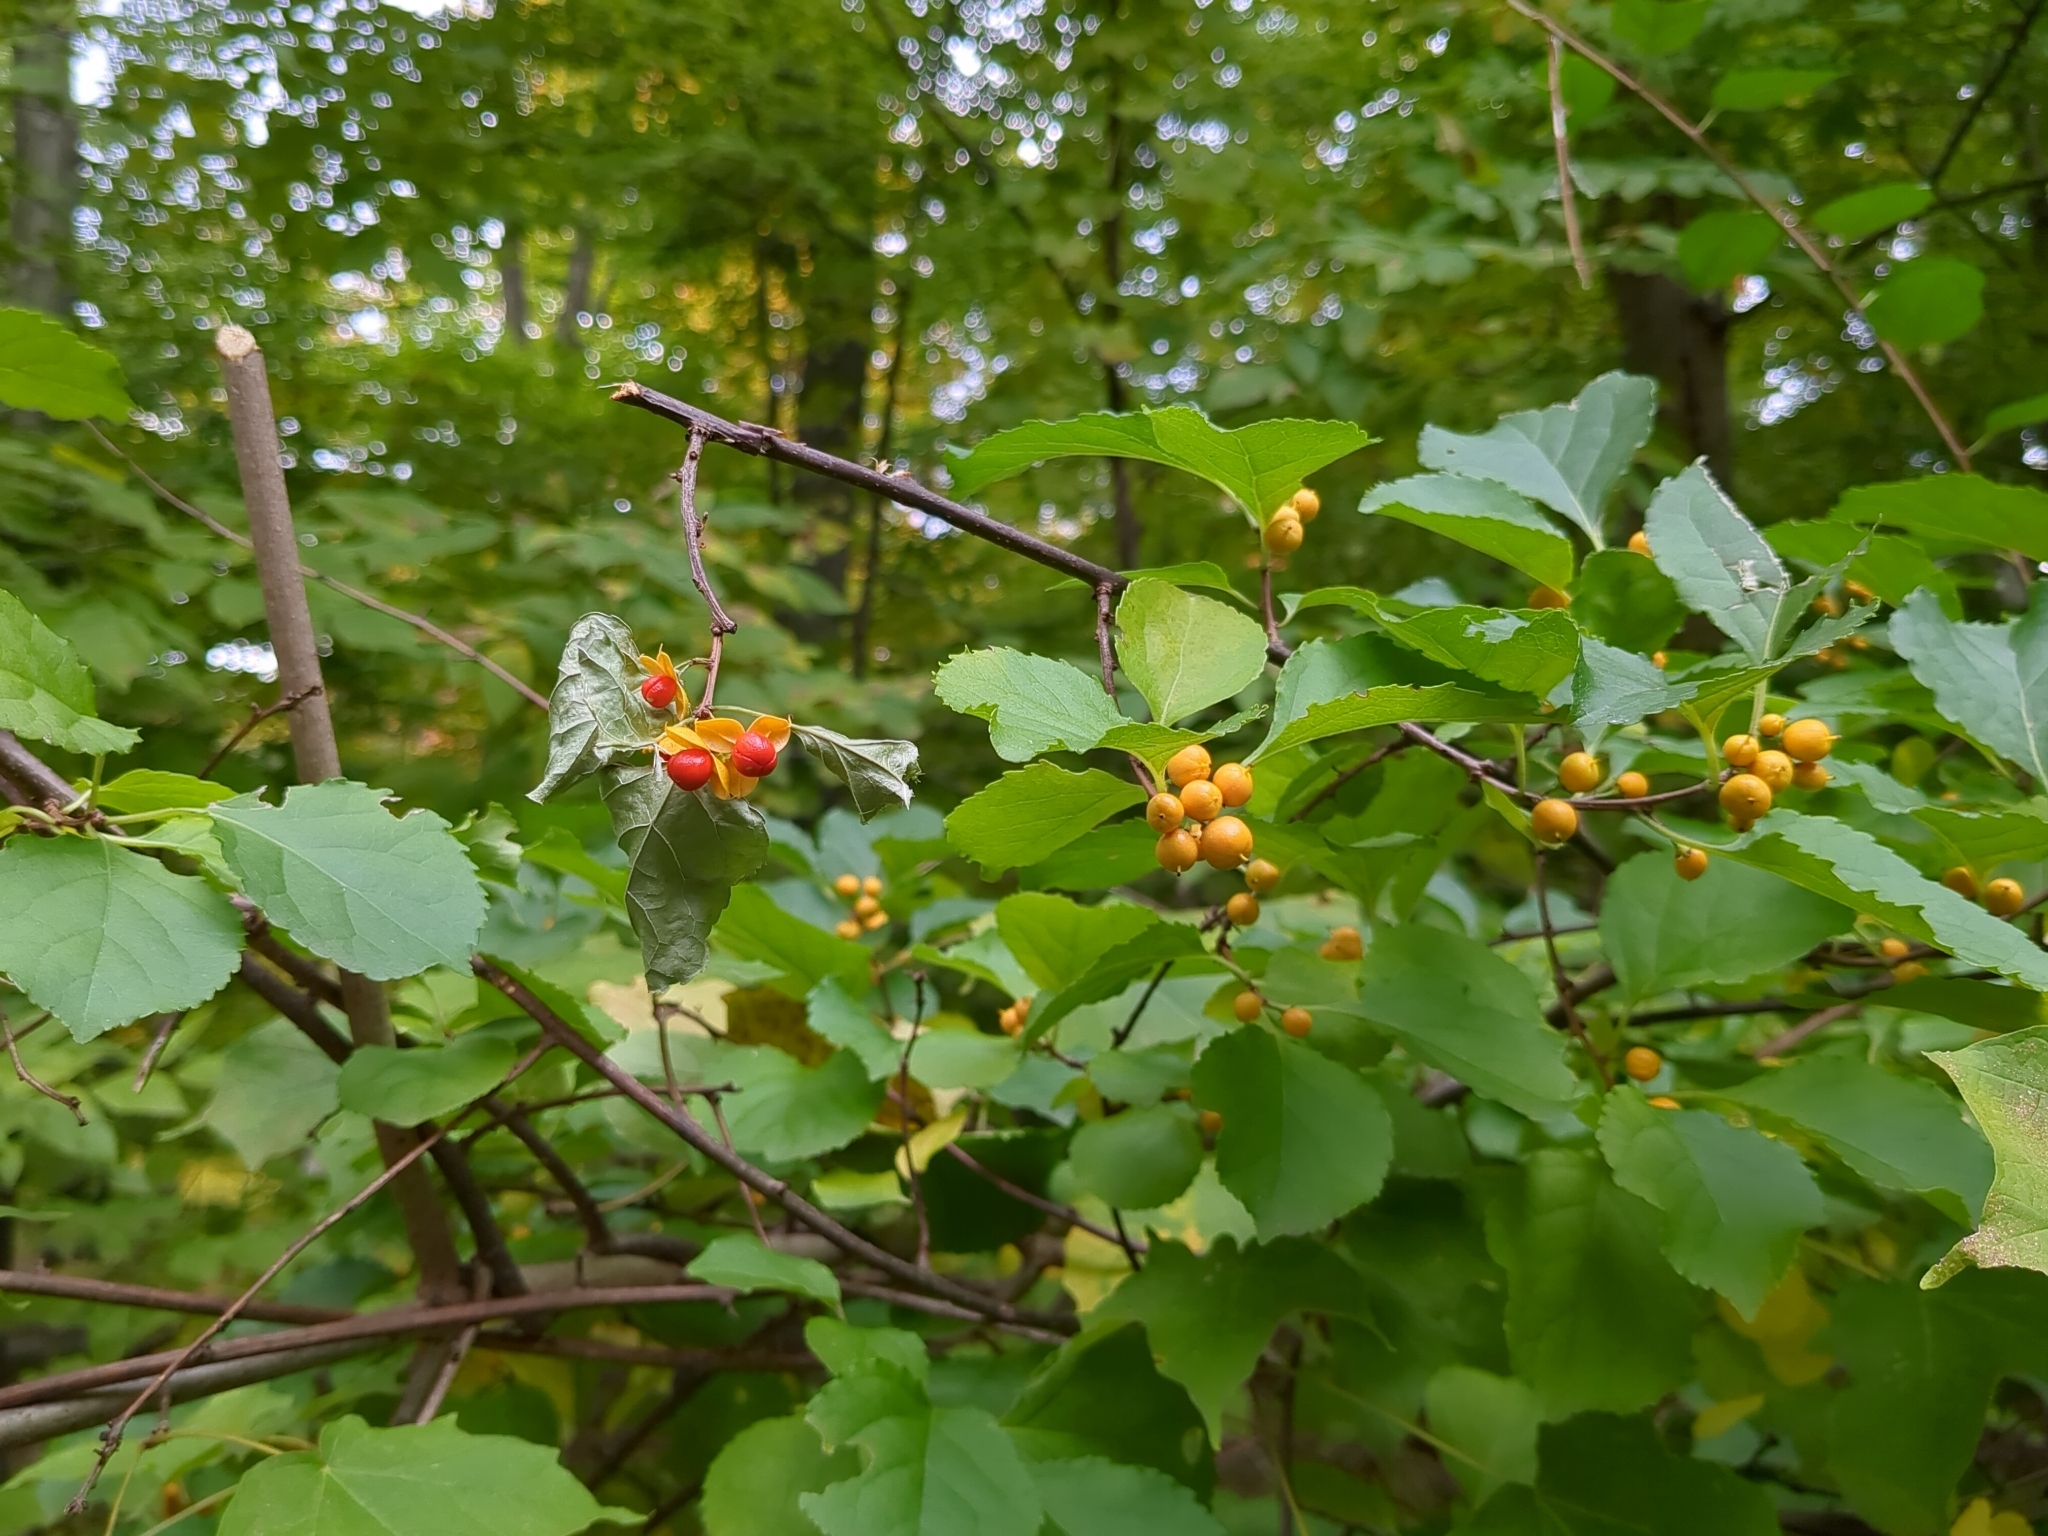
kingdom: Plantae
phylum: Tracheophyta
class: Magnoliopsida
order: Celastrales
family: Celastraceae
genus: Celastrus
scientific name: Celastrus orbiculatus
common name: Oriental bittersweet
